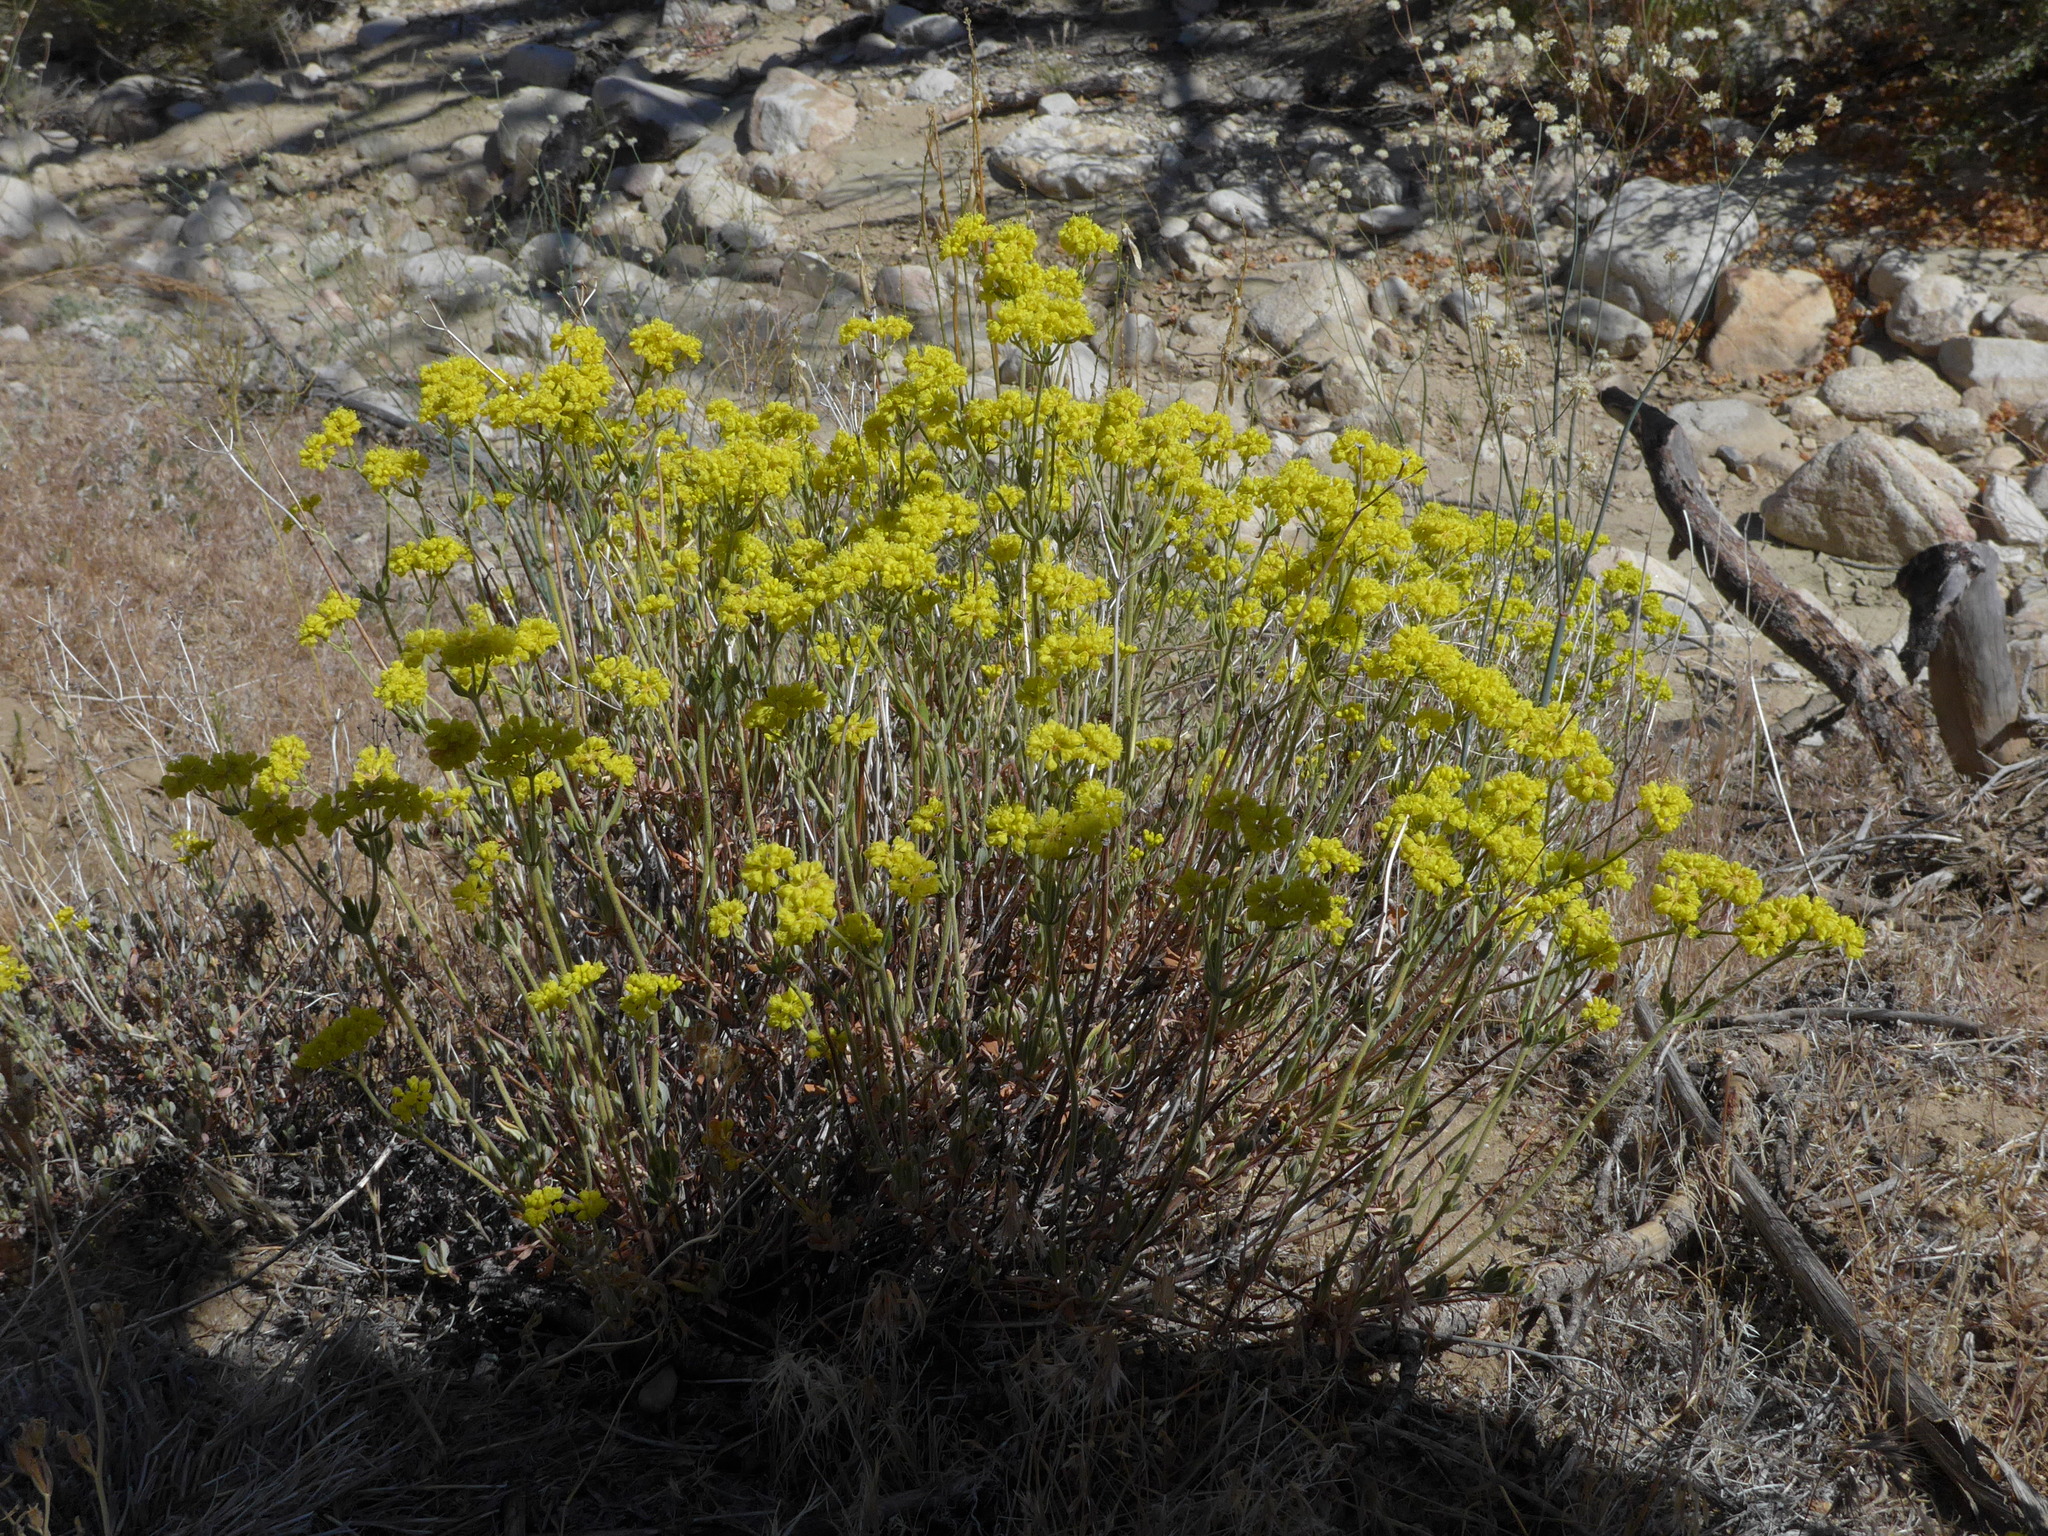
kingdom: Plantae
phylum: Tracheophyta
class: Magnoliopsida
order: Caryophyllales
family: Polygonaceae
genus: Eriogonum
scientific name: Eriogonum umbellatum
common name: Sulfur-buckwheat
